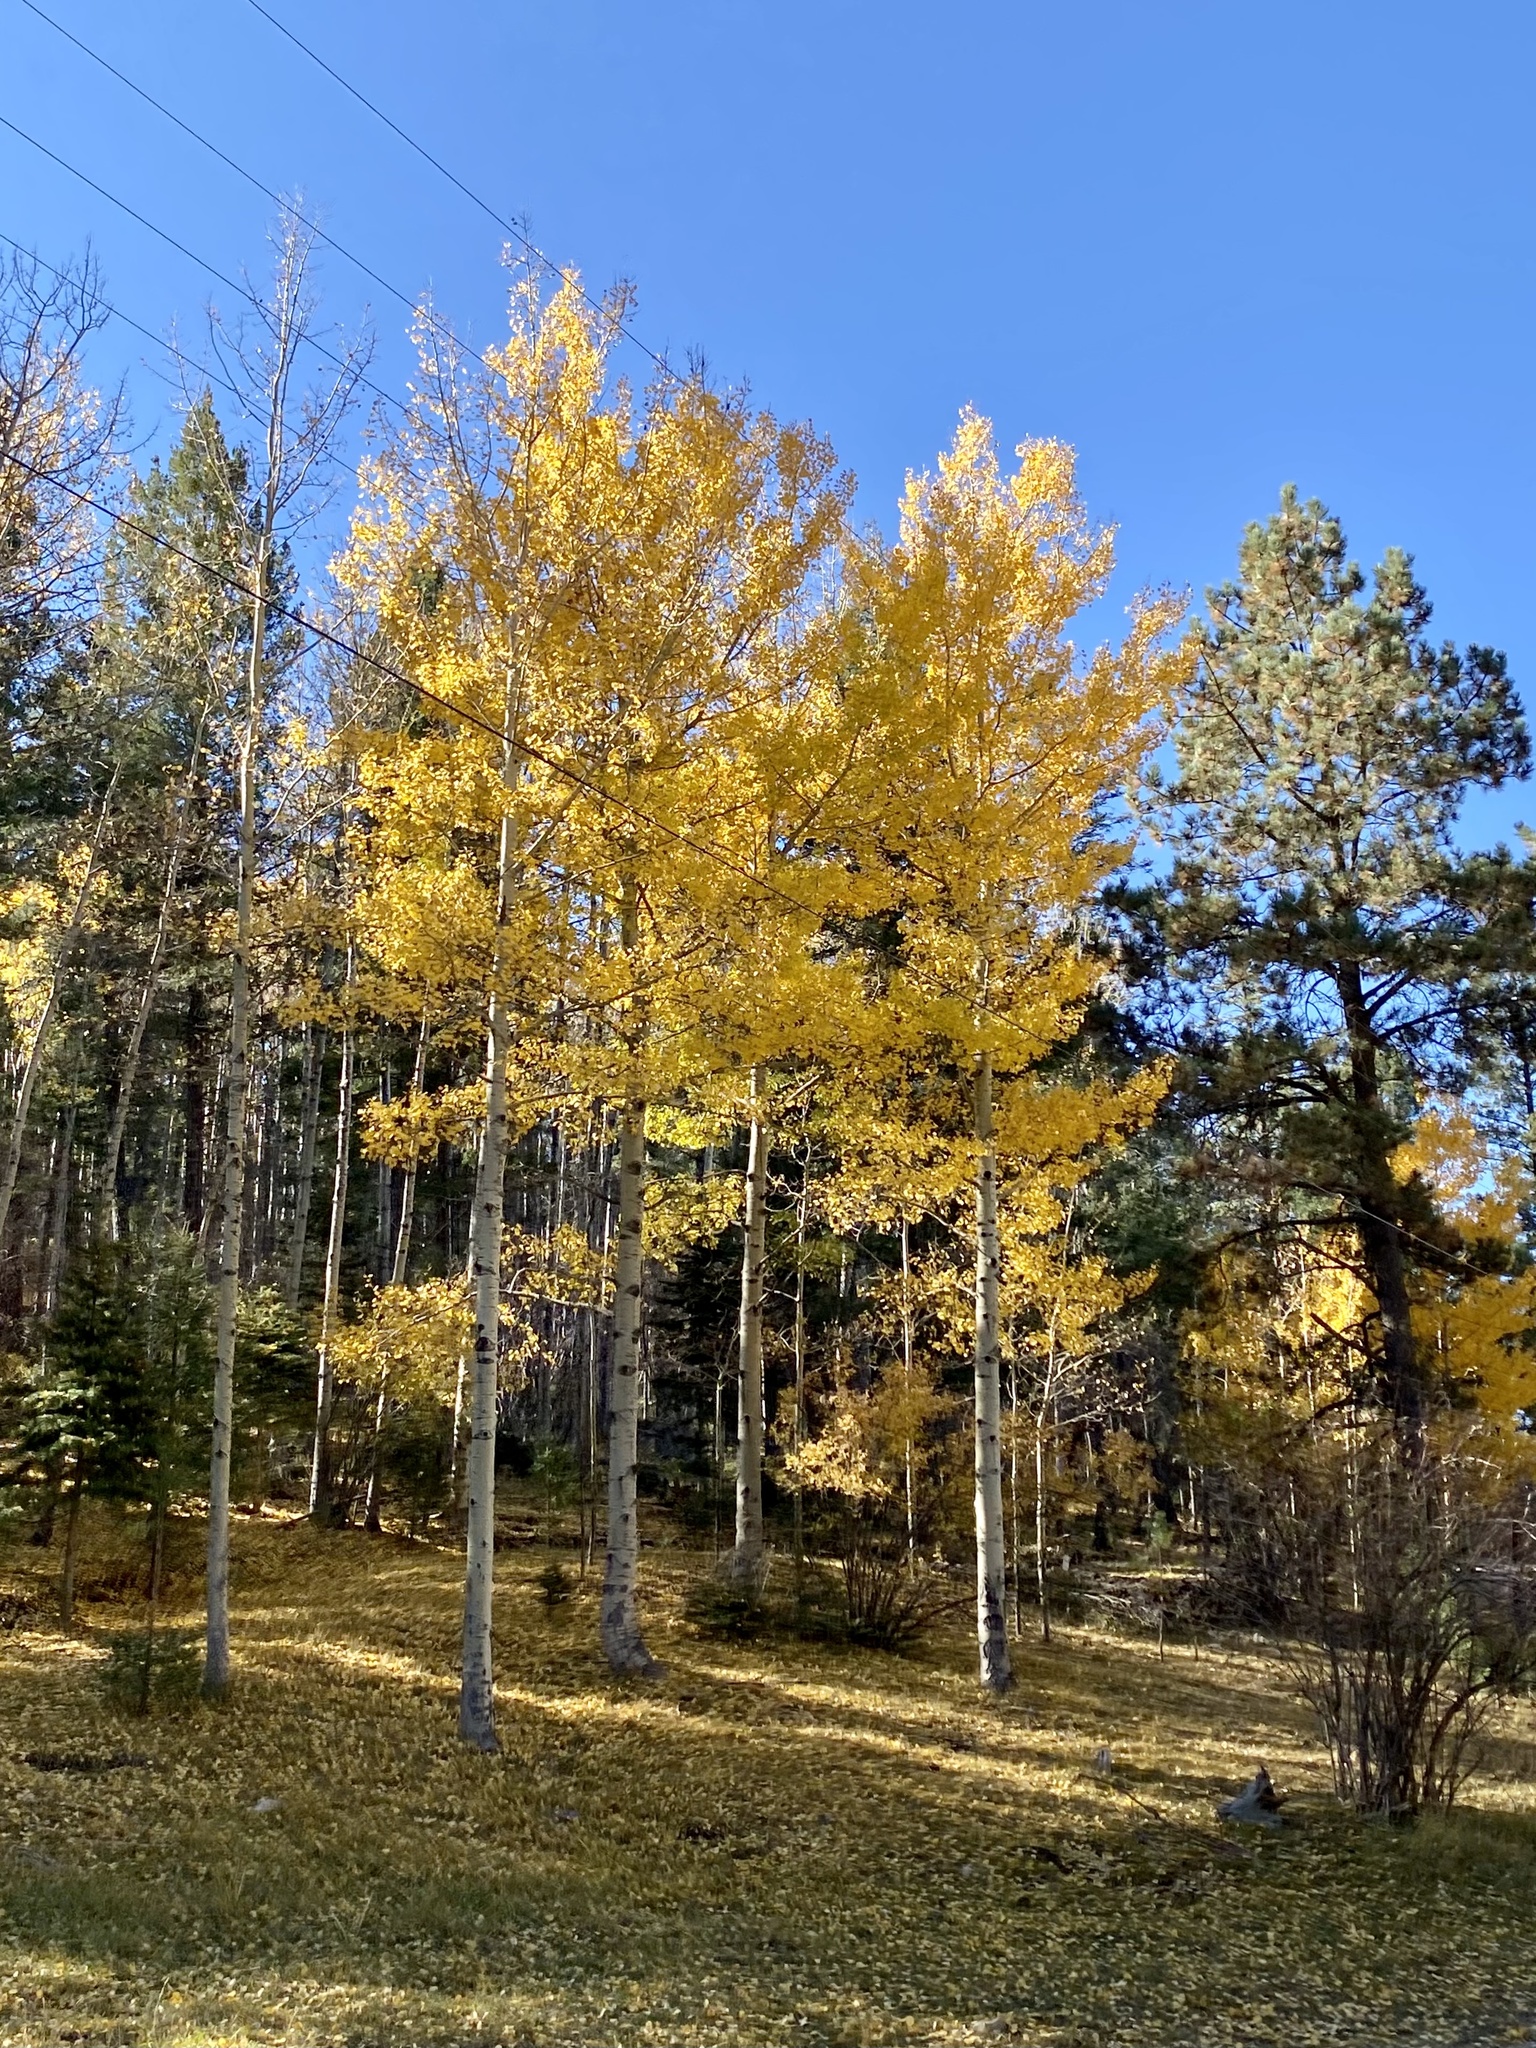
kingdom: Plantae
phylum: Tracheophyta
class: Magnoliopsida
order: Malpighiales
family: Salicaceae
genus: Populus
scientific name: Populus tremuloides
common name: Quaking aspen
